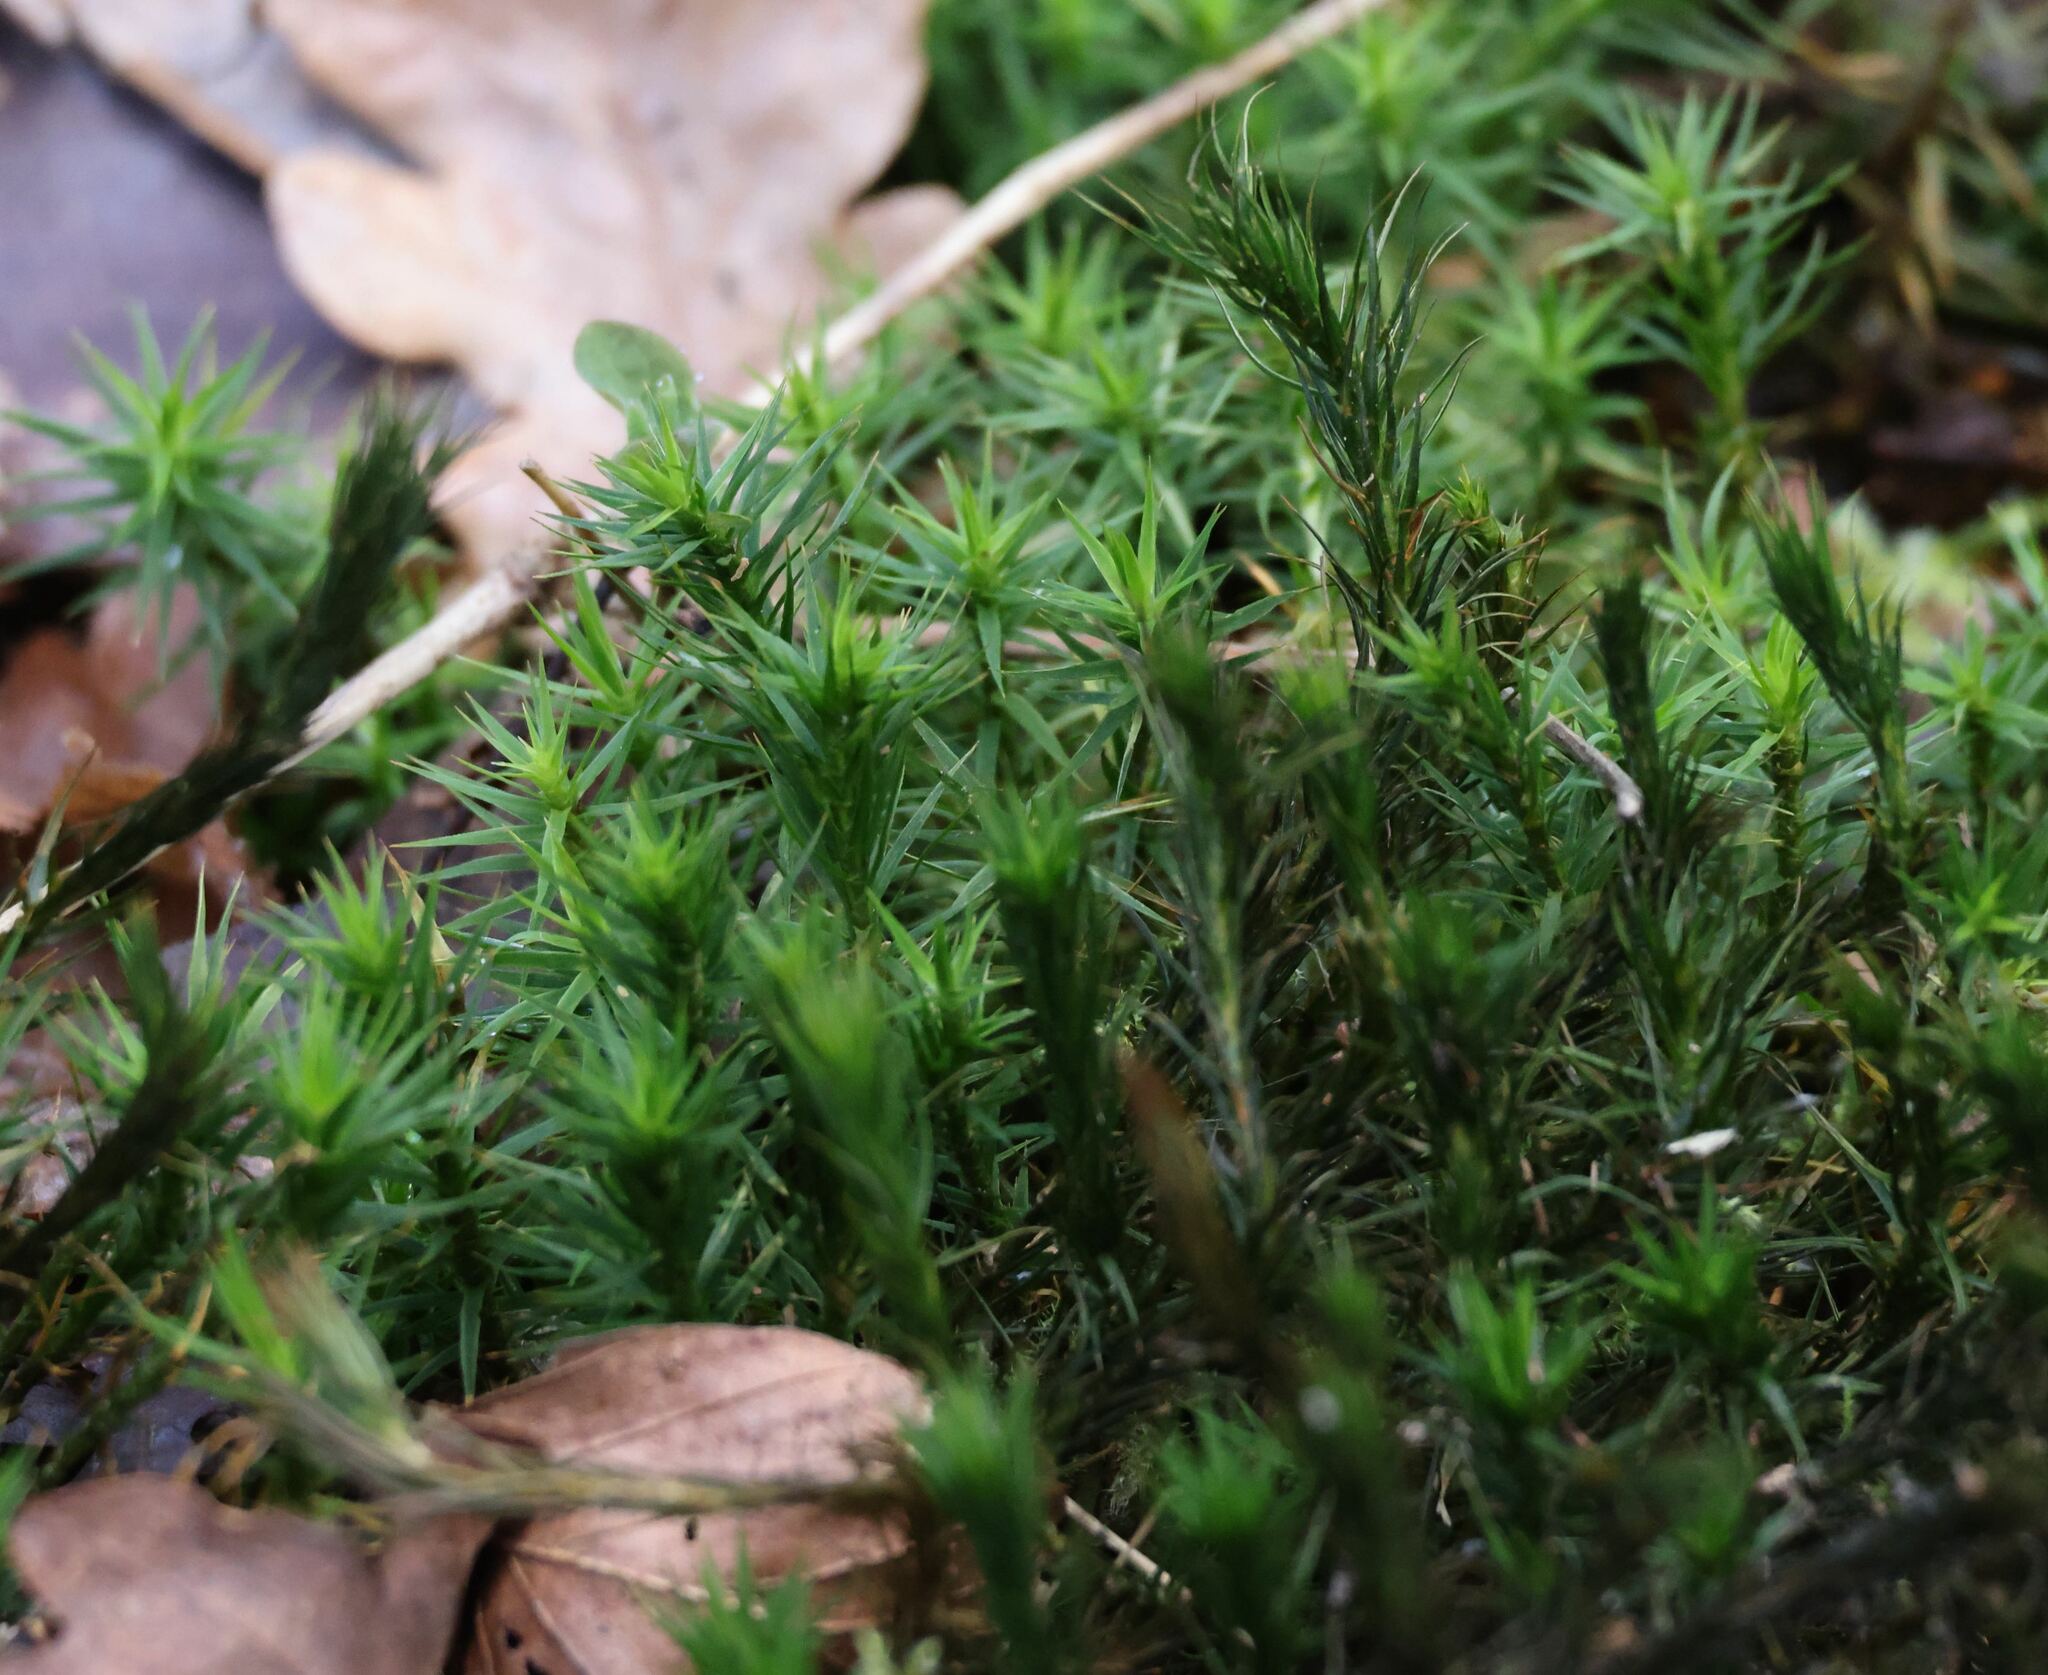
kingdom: Plantae
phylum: Bryophyta
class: Polytrichopsida
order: Polytrichales
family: Polytrichaceae
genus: Polytrichum
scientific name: Polytrichum formosum
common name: Bank haircap moss
